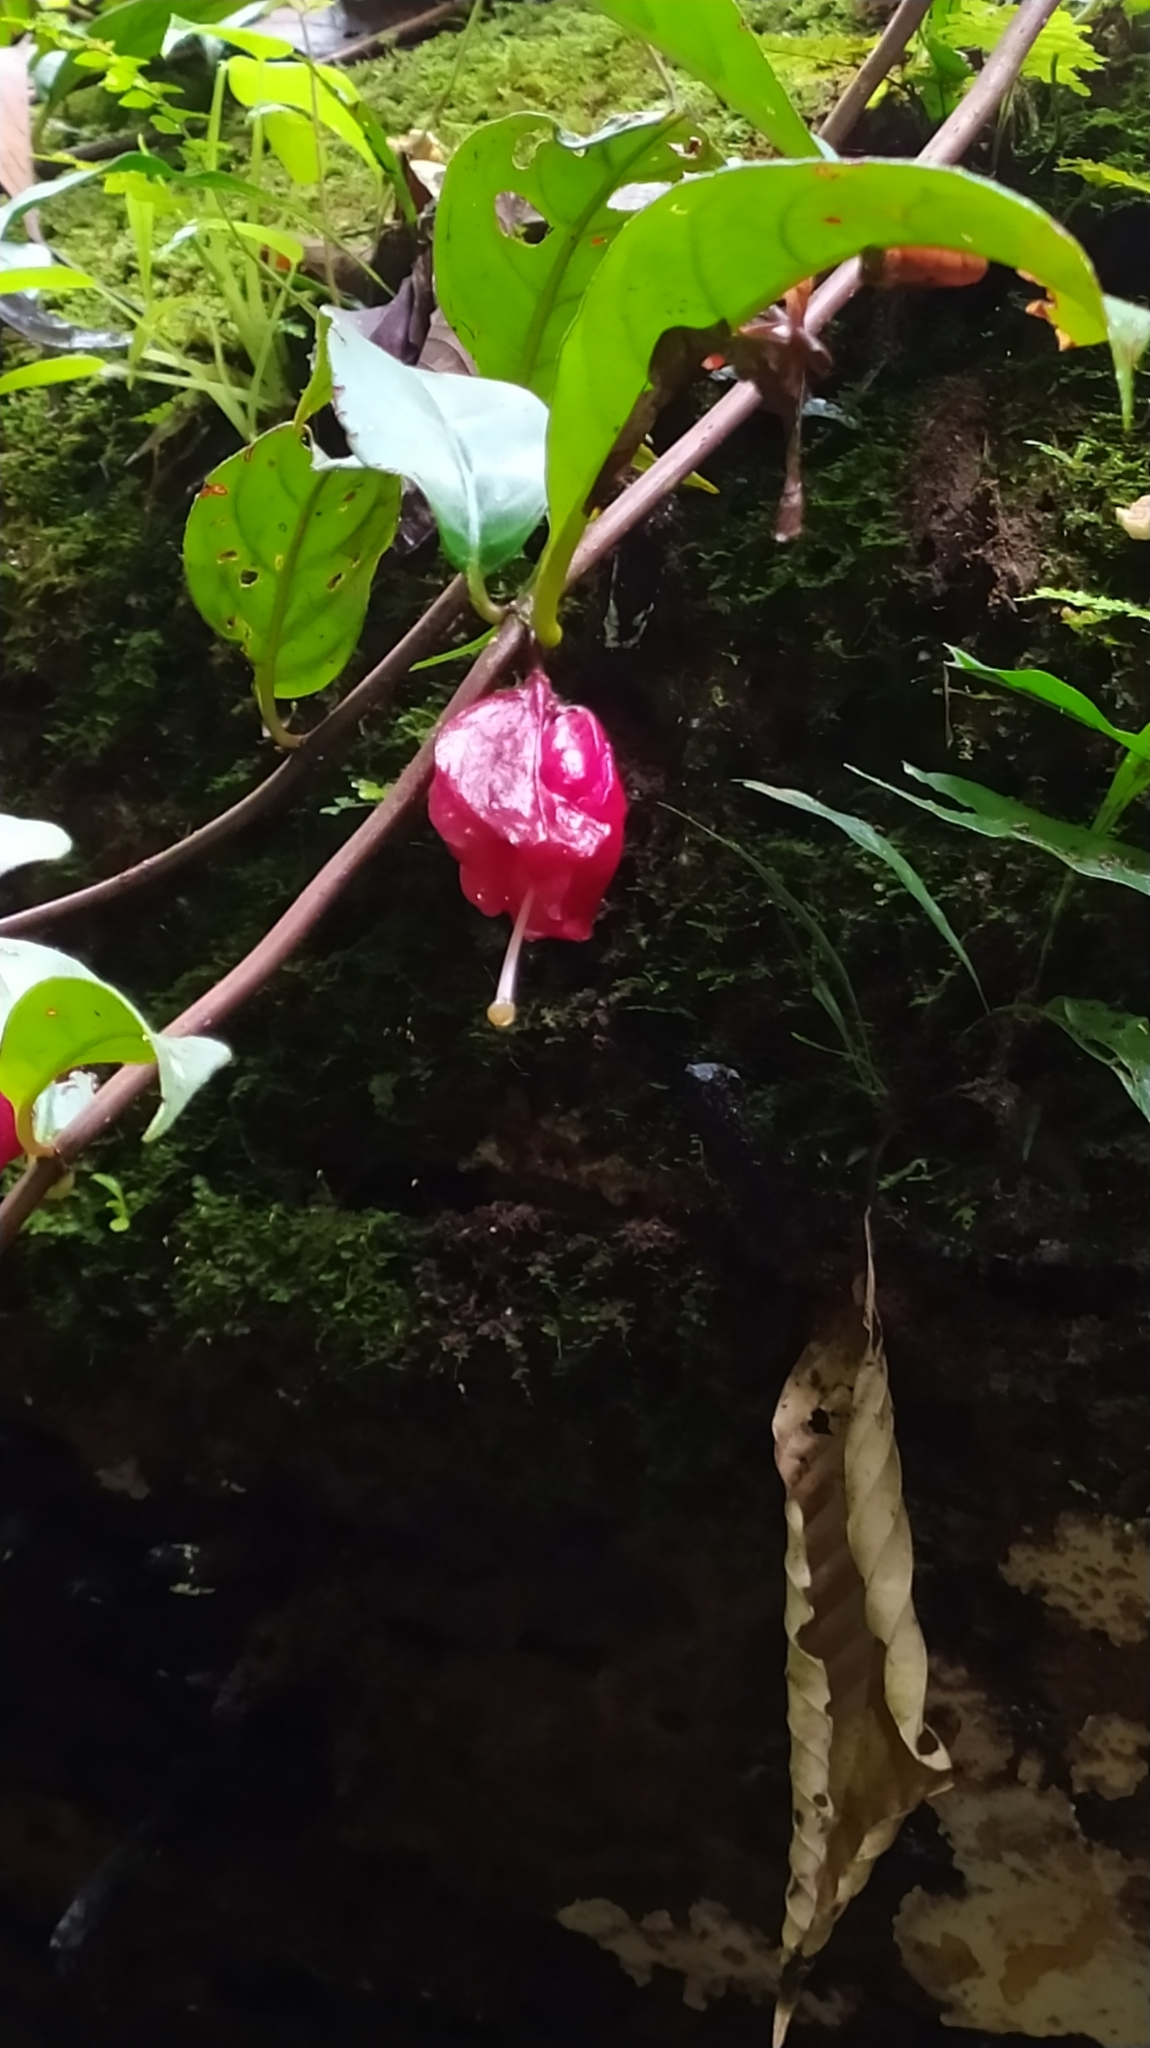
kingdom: Plantae
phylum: Tracheophyta
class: Magnoliopsida
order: Lamiales
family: Gesneriaceae
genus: Drymonia
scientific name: Drymonia coccinea
